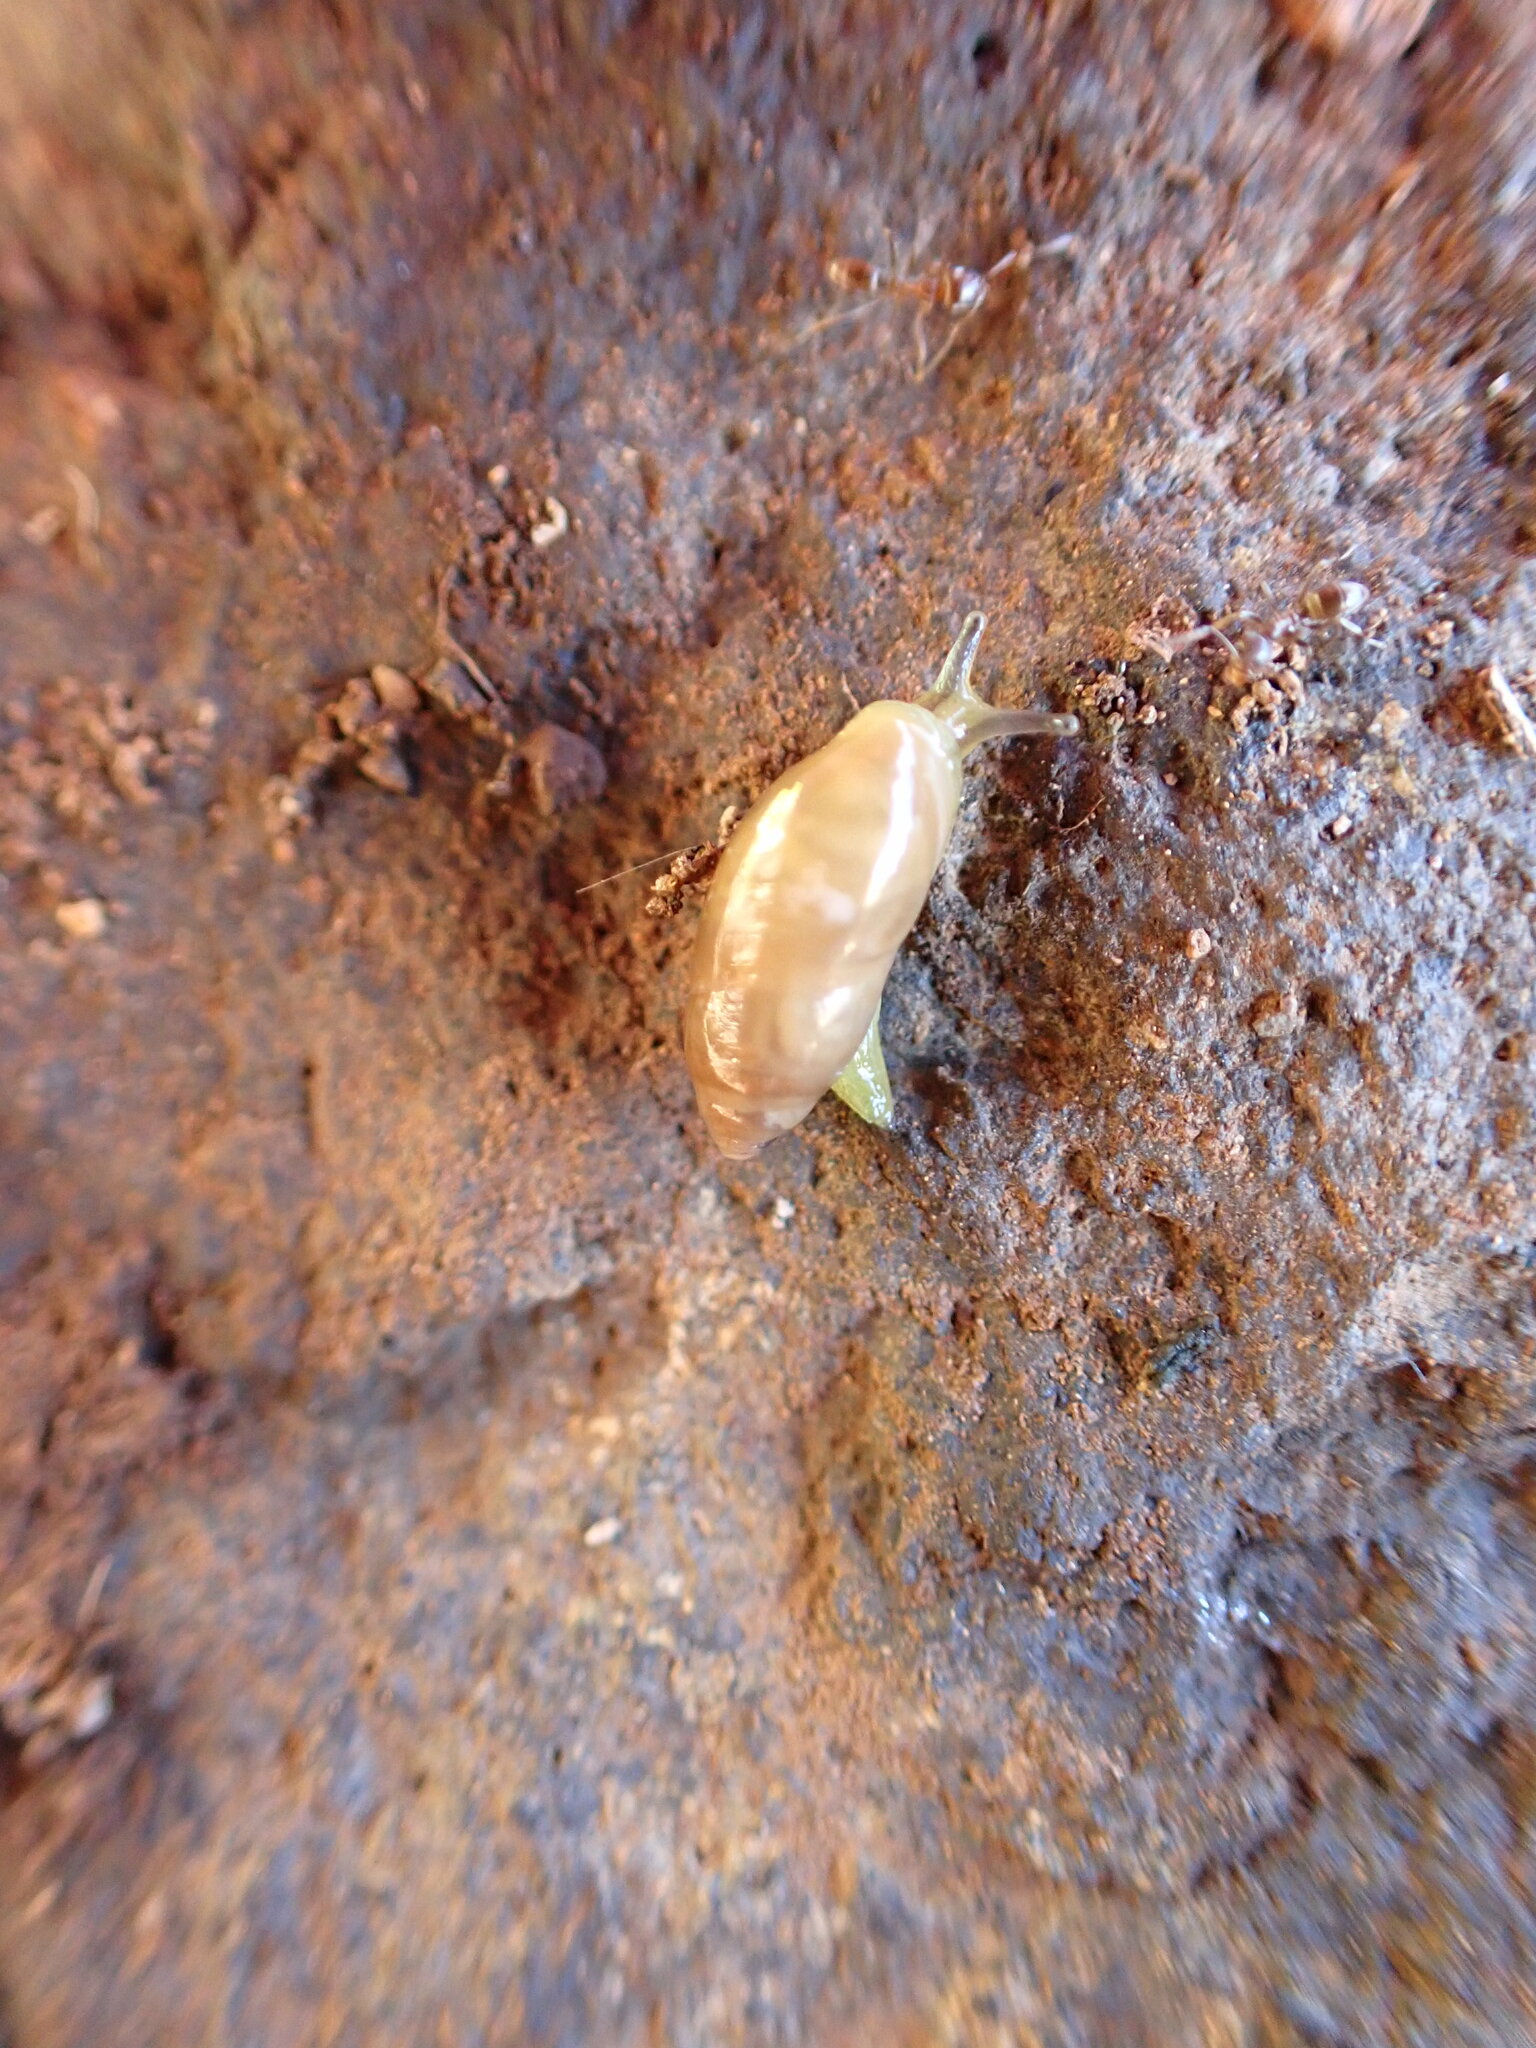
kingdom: Animalia
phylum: Mollusca
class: Gastropoda
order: Stylommatophora
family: Ferussaciidae
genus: Ferussacia
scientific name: Ferussacia folliculum
